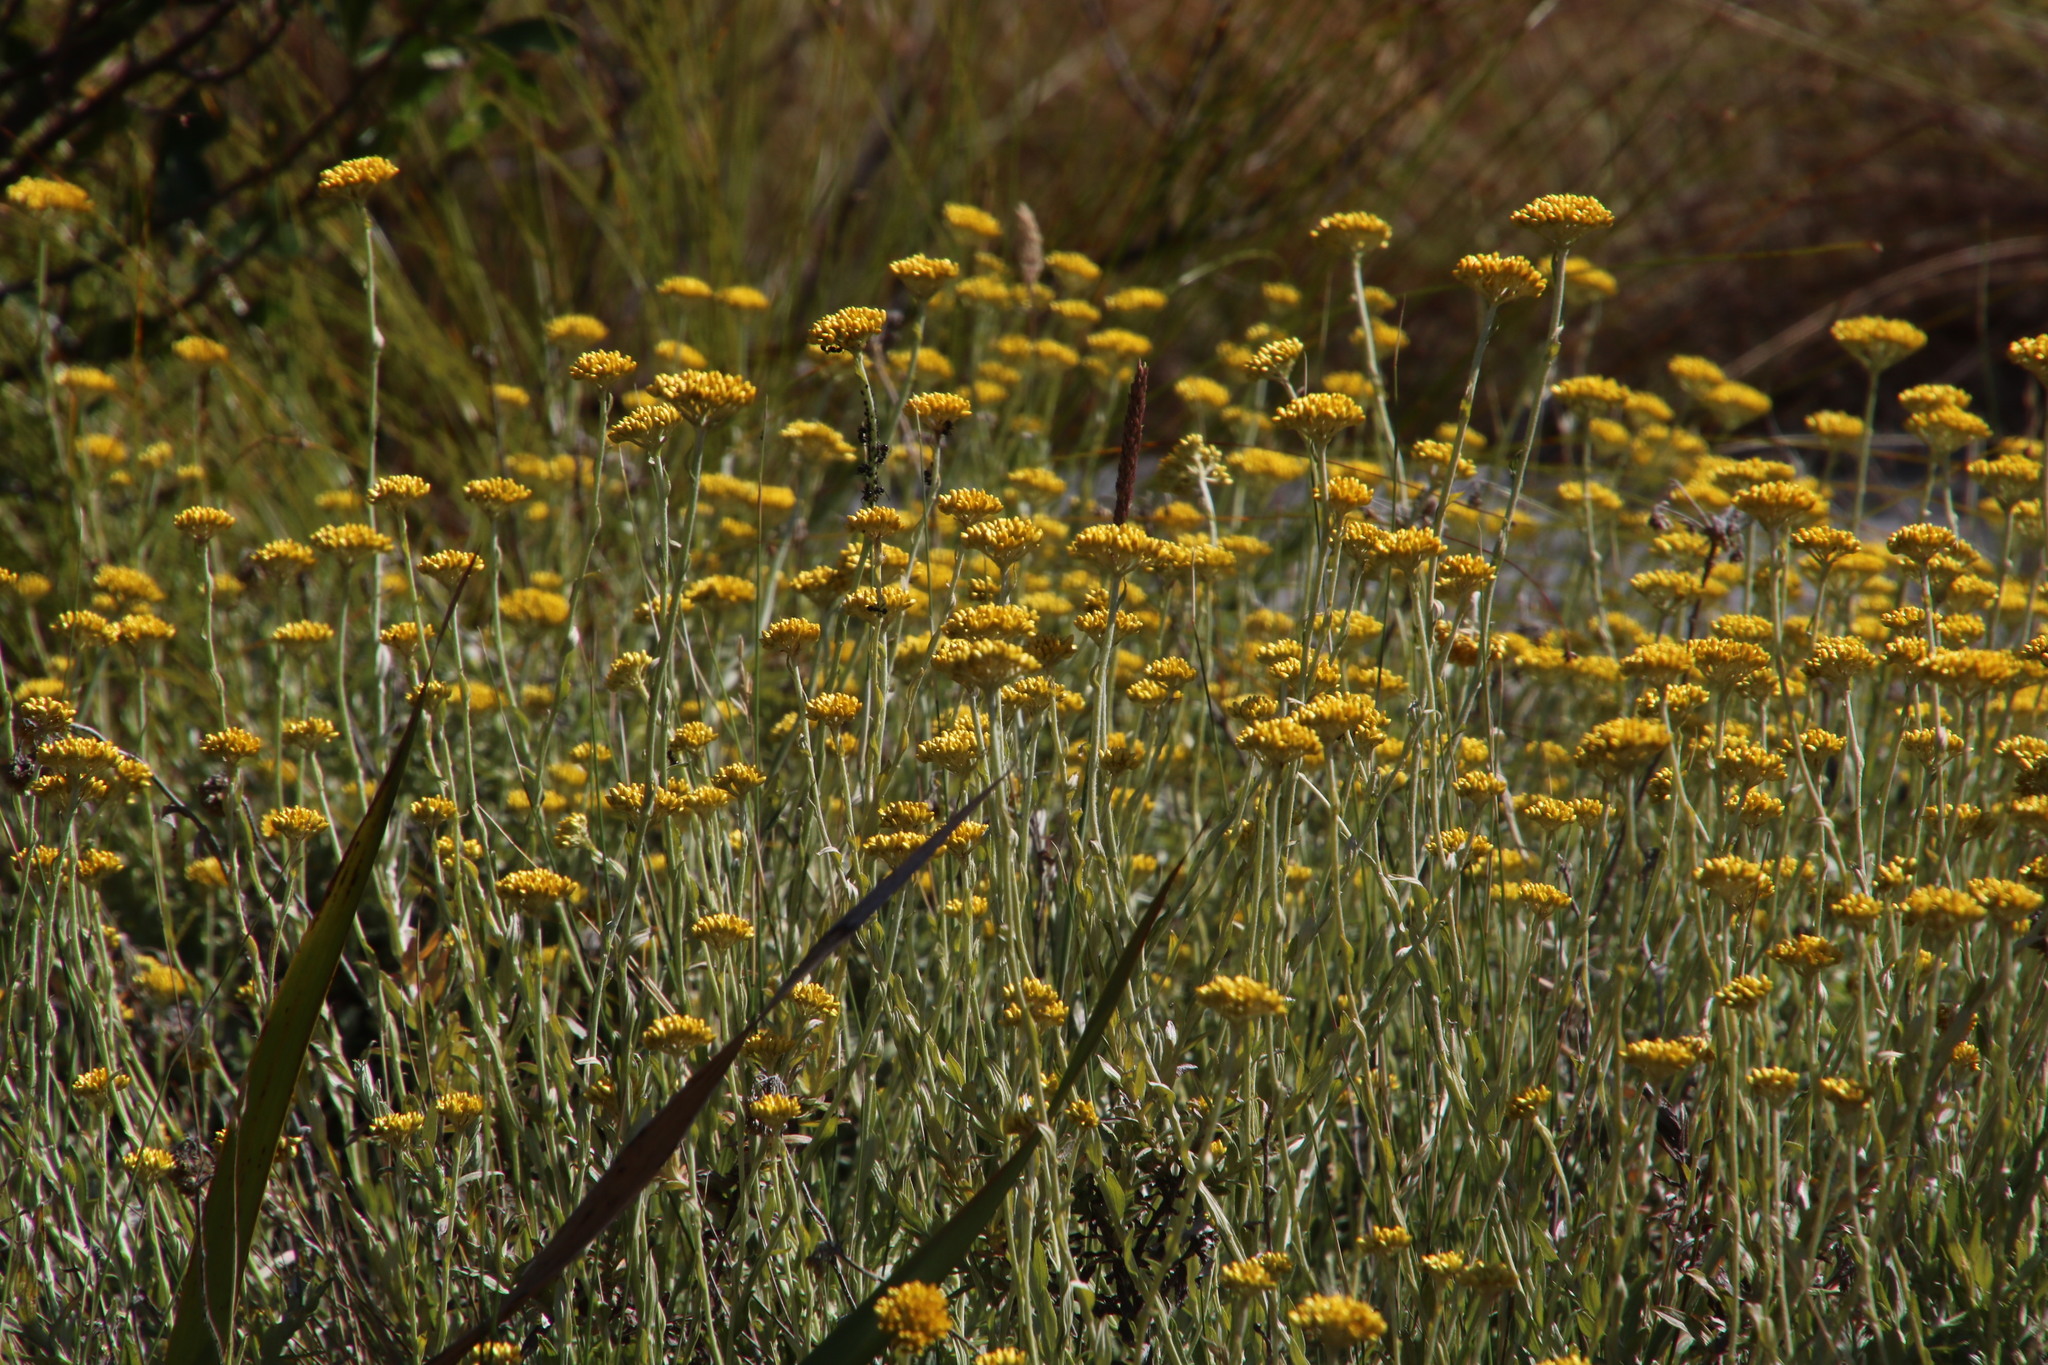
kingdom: Plantae
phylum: Tracheophyta
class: Magnoliopsida
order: Asterales
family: Asteraceae
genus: Helichrysum
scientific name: Helichrysum cymosum
